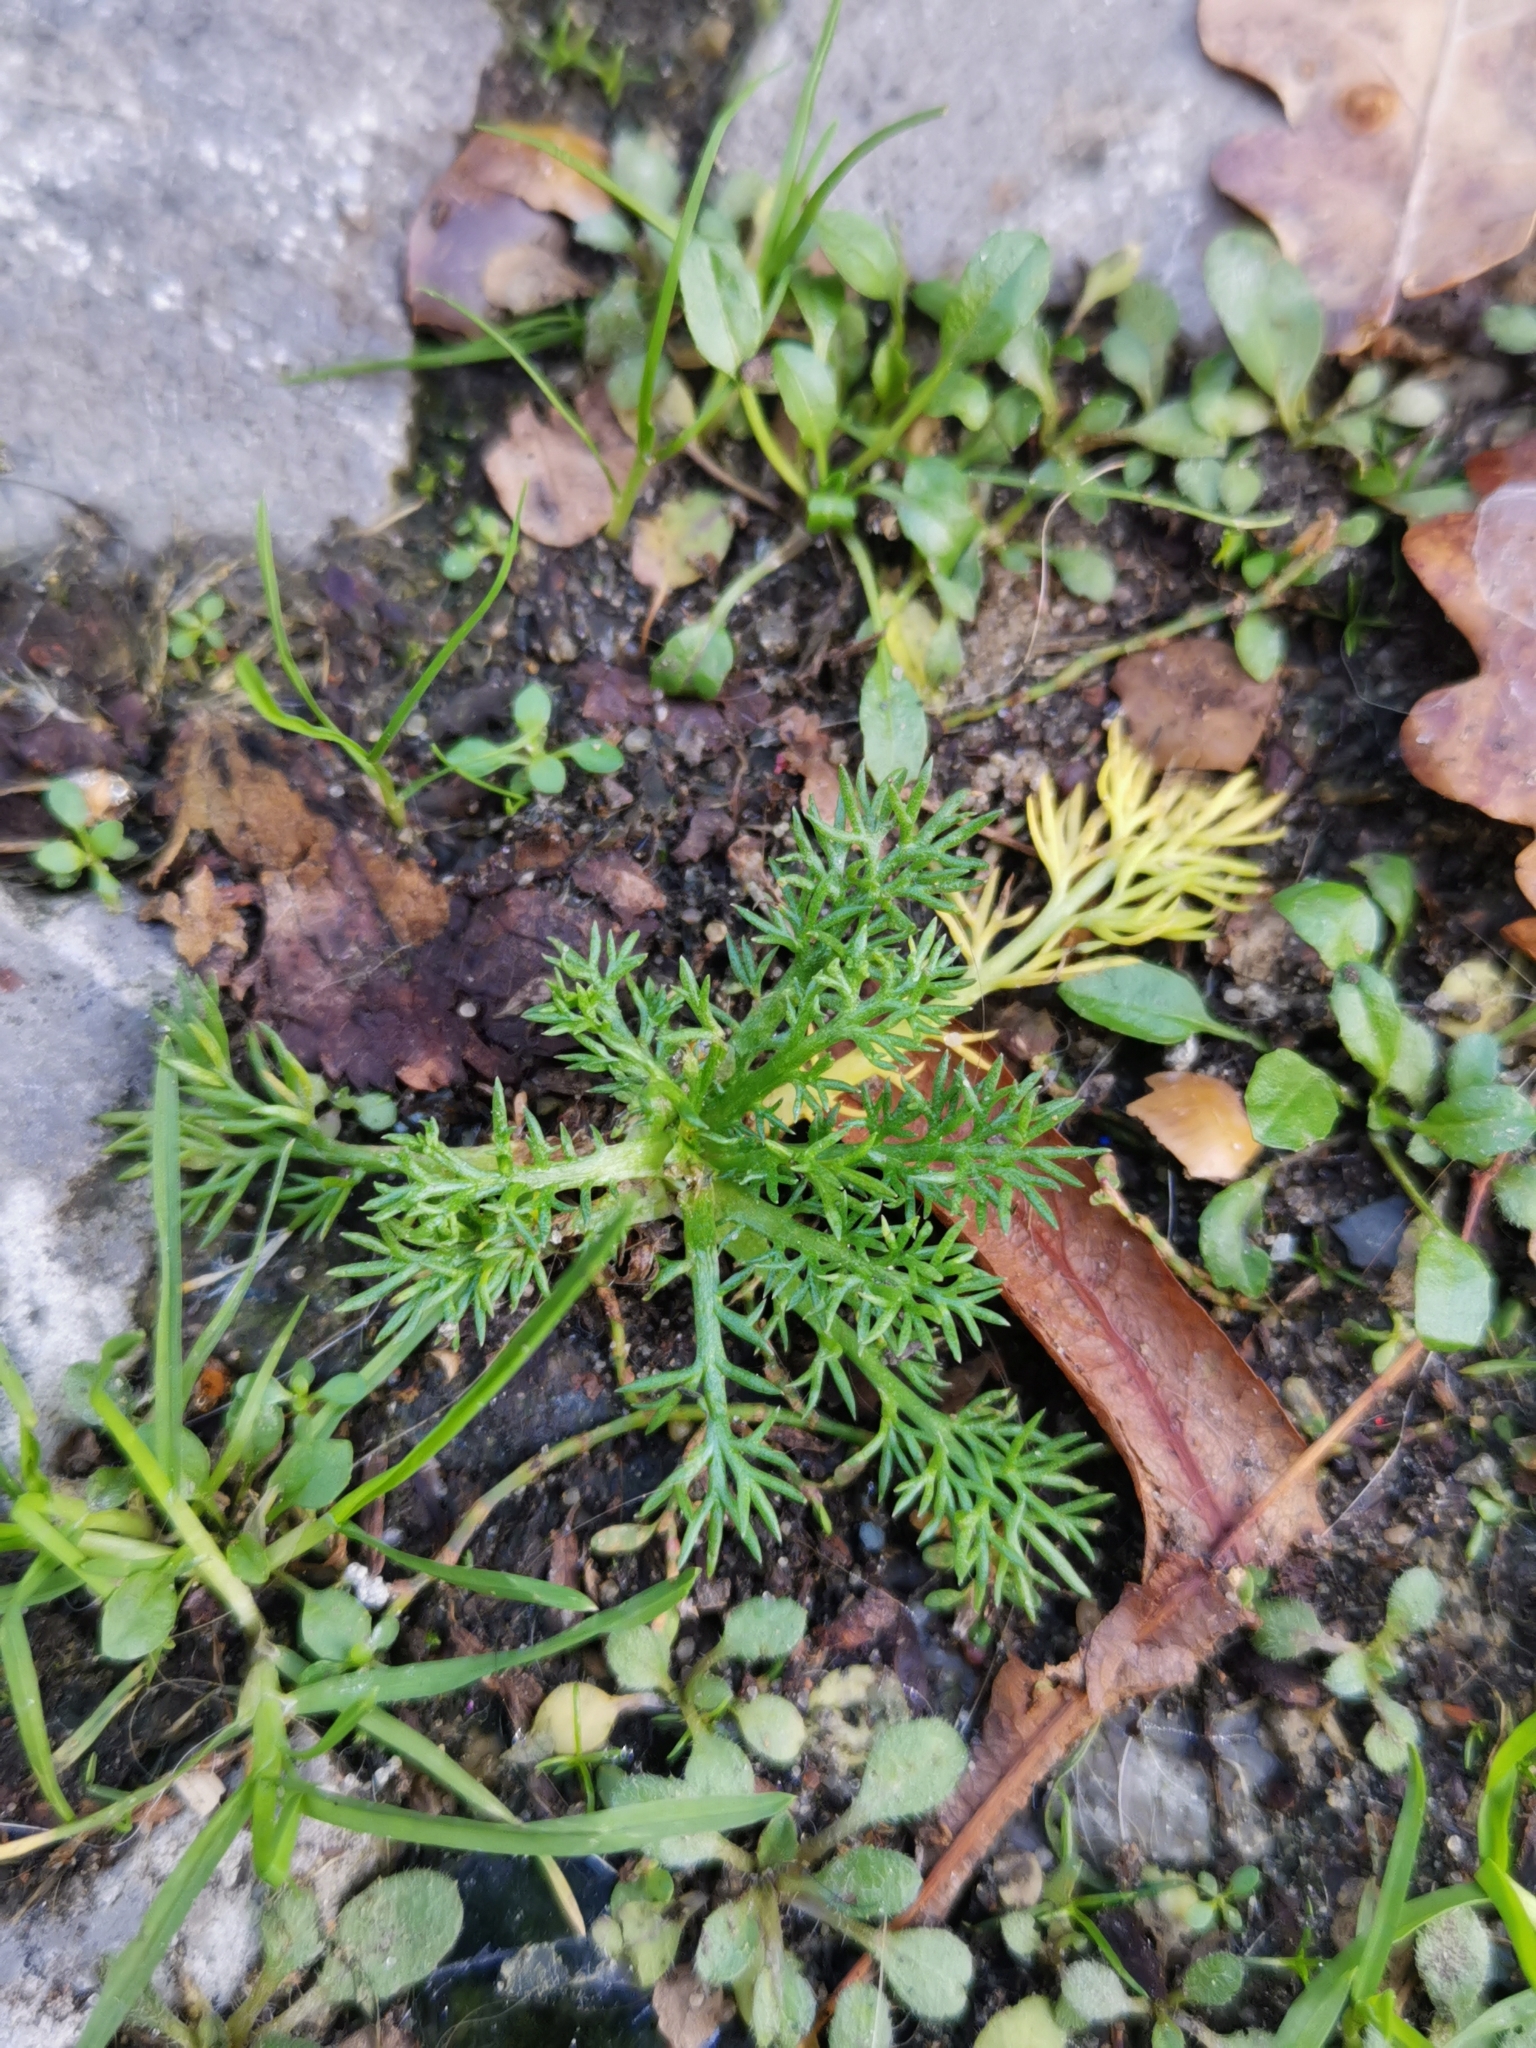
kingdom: Plantae
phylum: Tracheophyta
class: Magnoliopsida
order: Asterales
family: Asteraceae
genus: Matricaria
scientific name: Matricaria discoidea
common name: Disc mayweed
